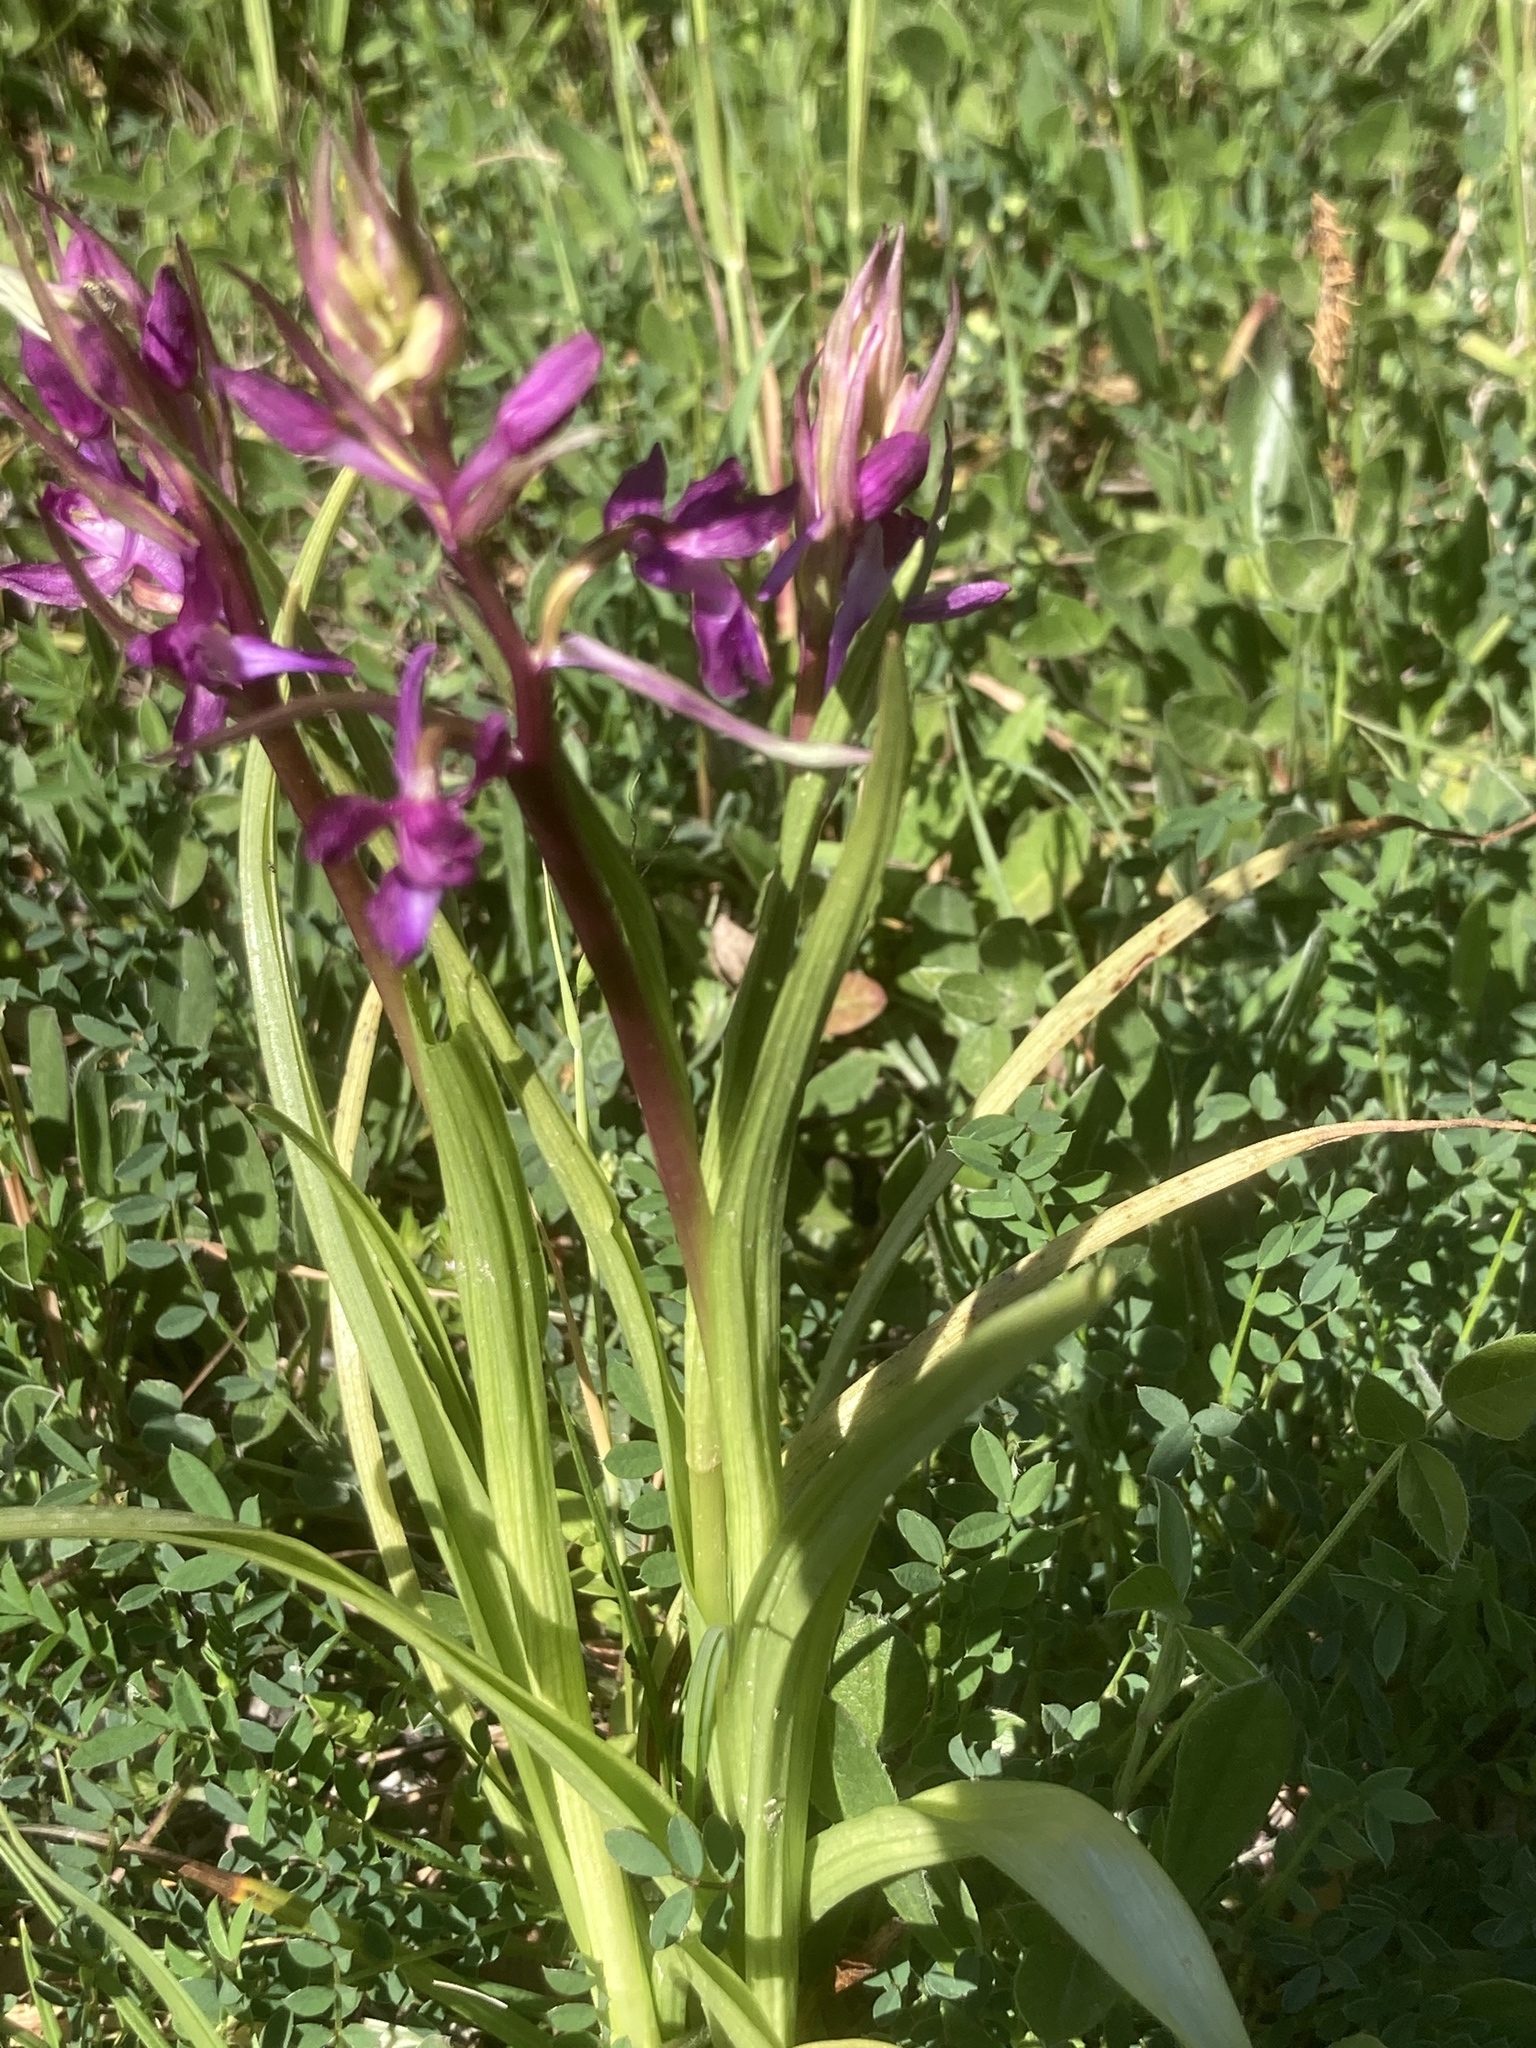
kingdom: Plantae
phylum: Tracheophyta
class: Liliopsida
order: Asparagales
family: Orchidaceae
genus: Anacamptis
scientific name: Anacamptis laxiflora
